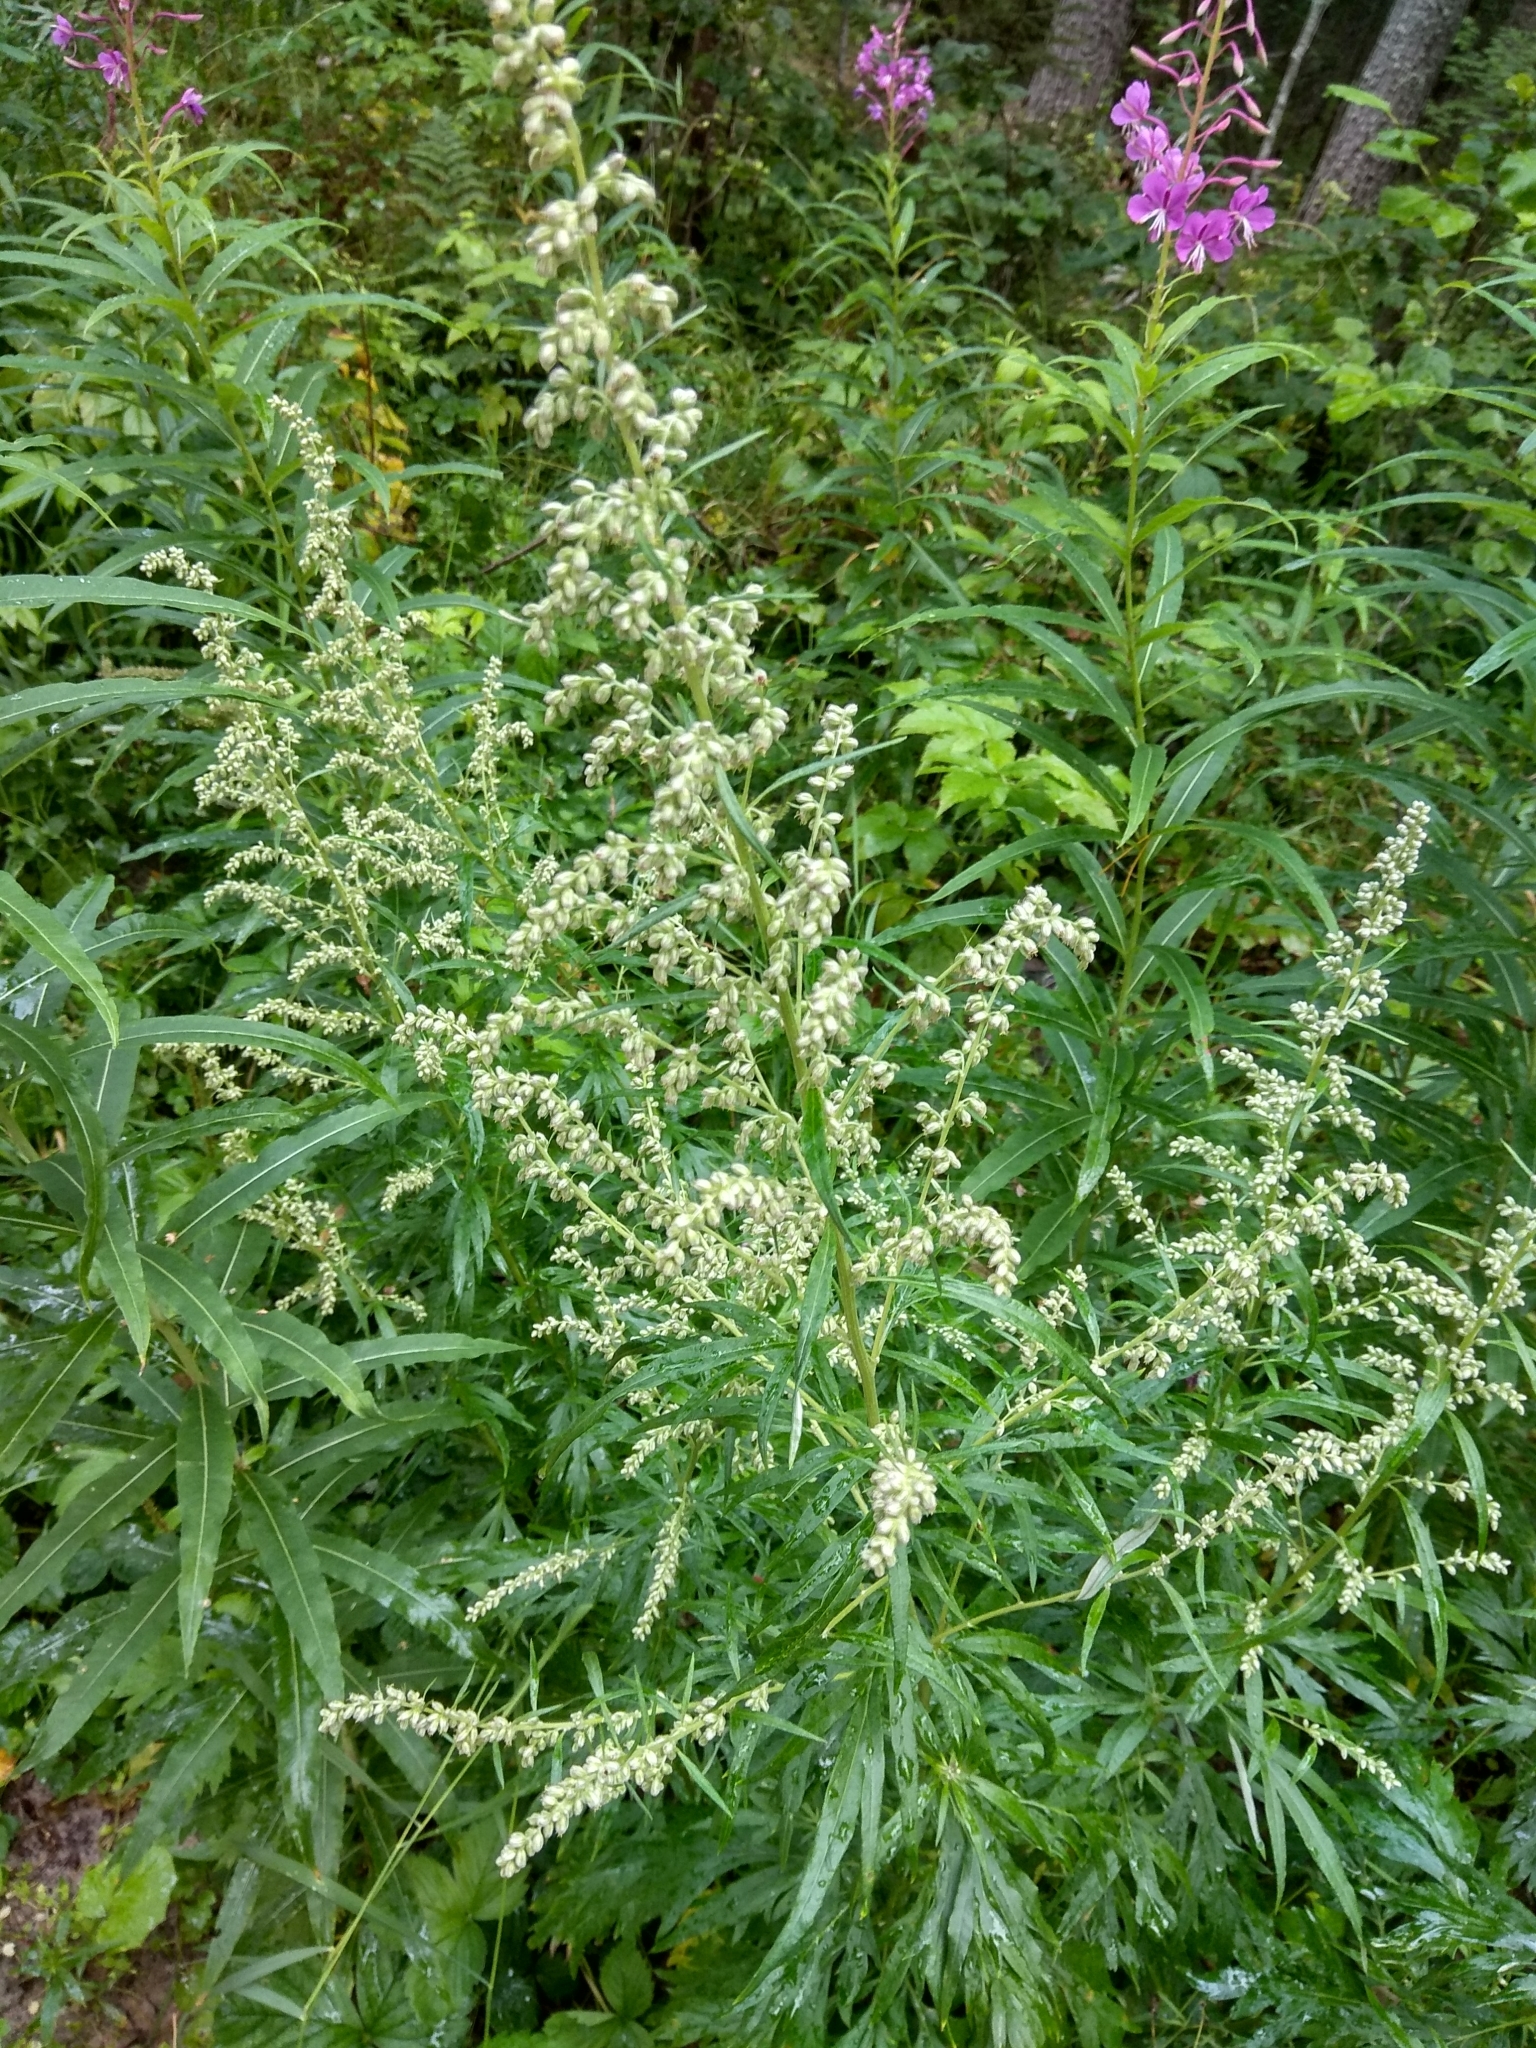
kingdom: Plantae
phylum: Tracheophyta
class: Magnoliopsida
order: Asterales
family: Asteraceae
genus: Artemisia
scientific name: Artemisia vulgaris
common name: Mugwort
